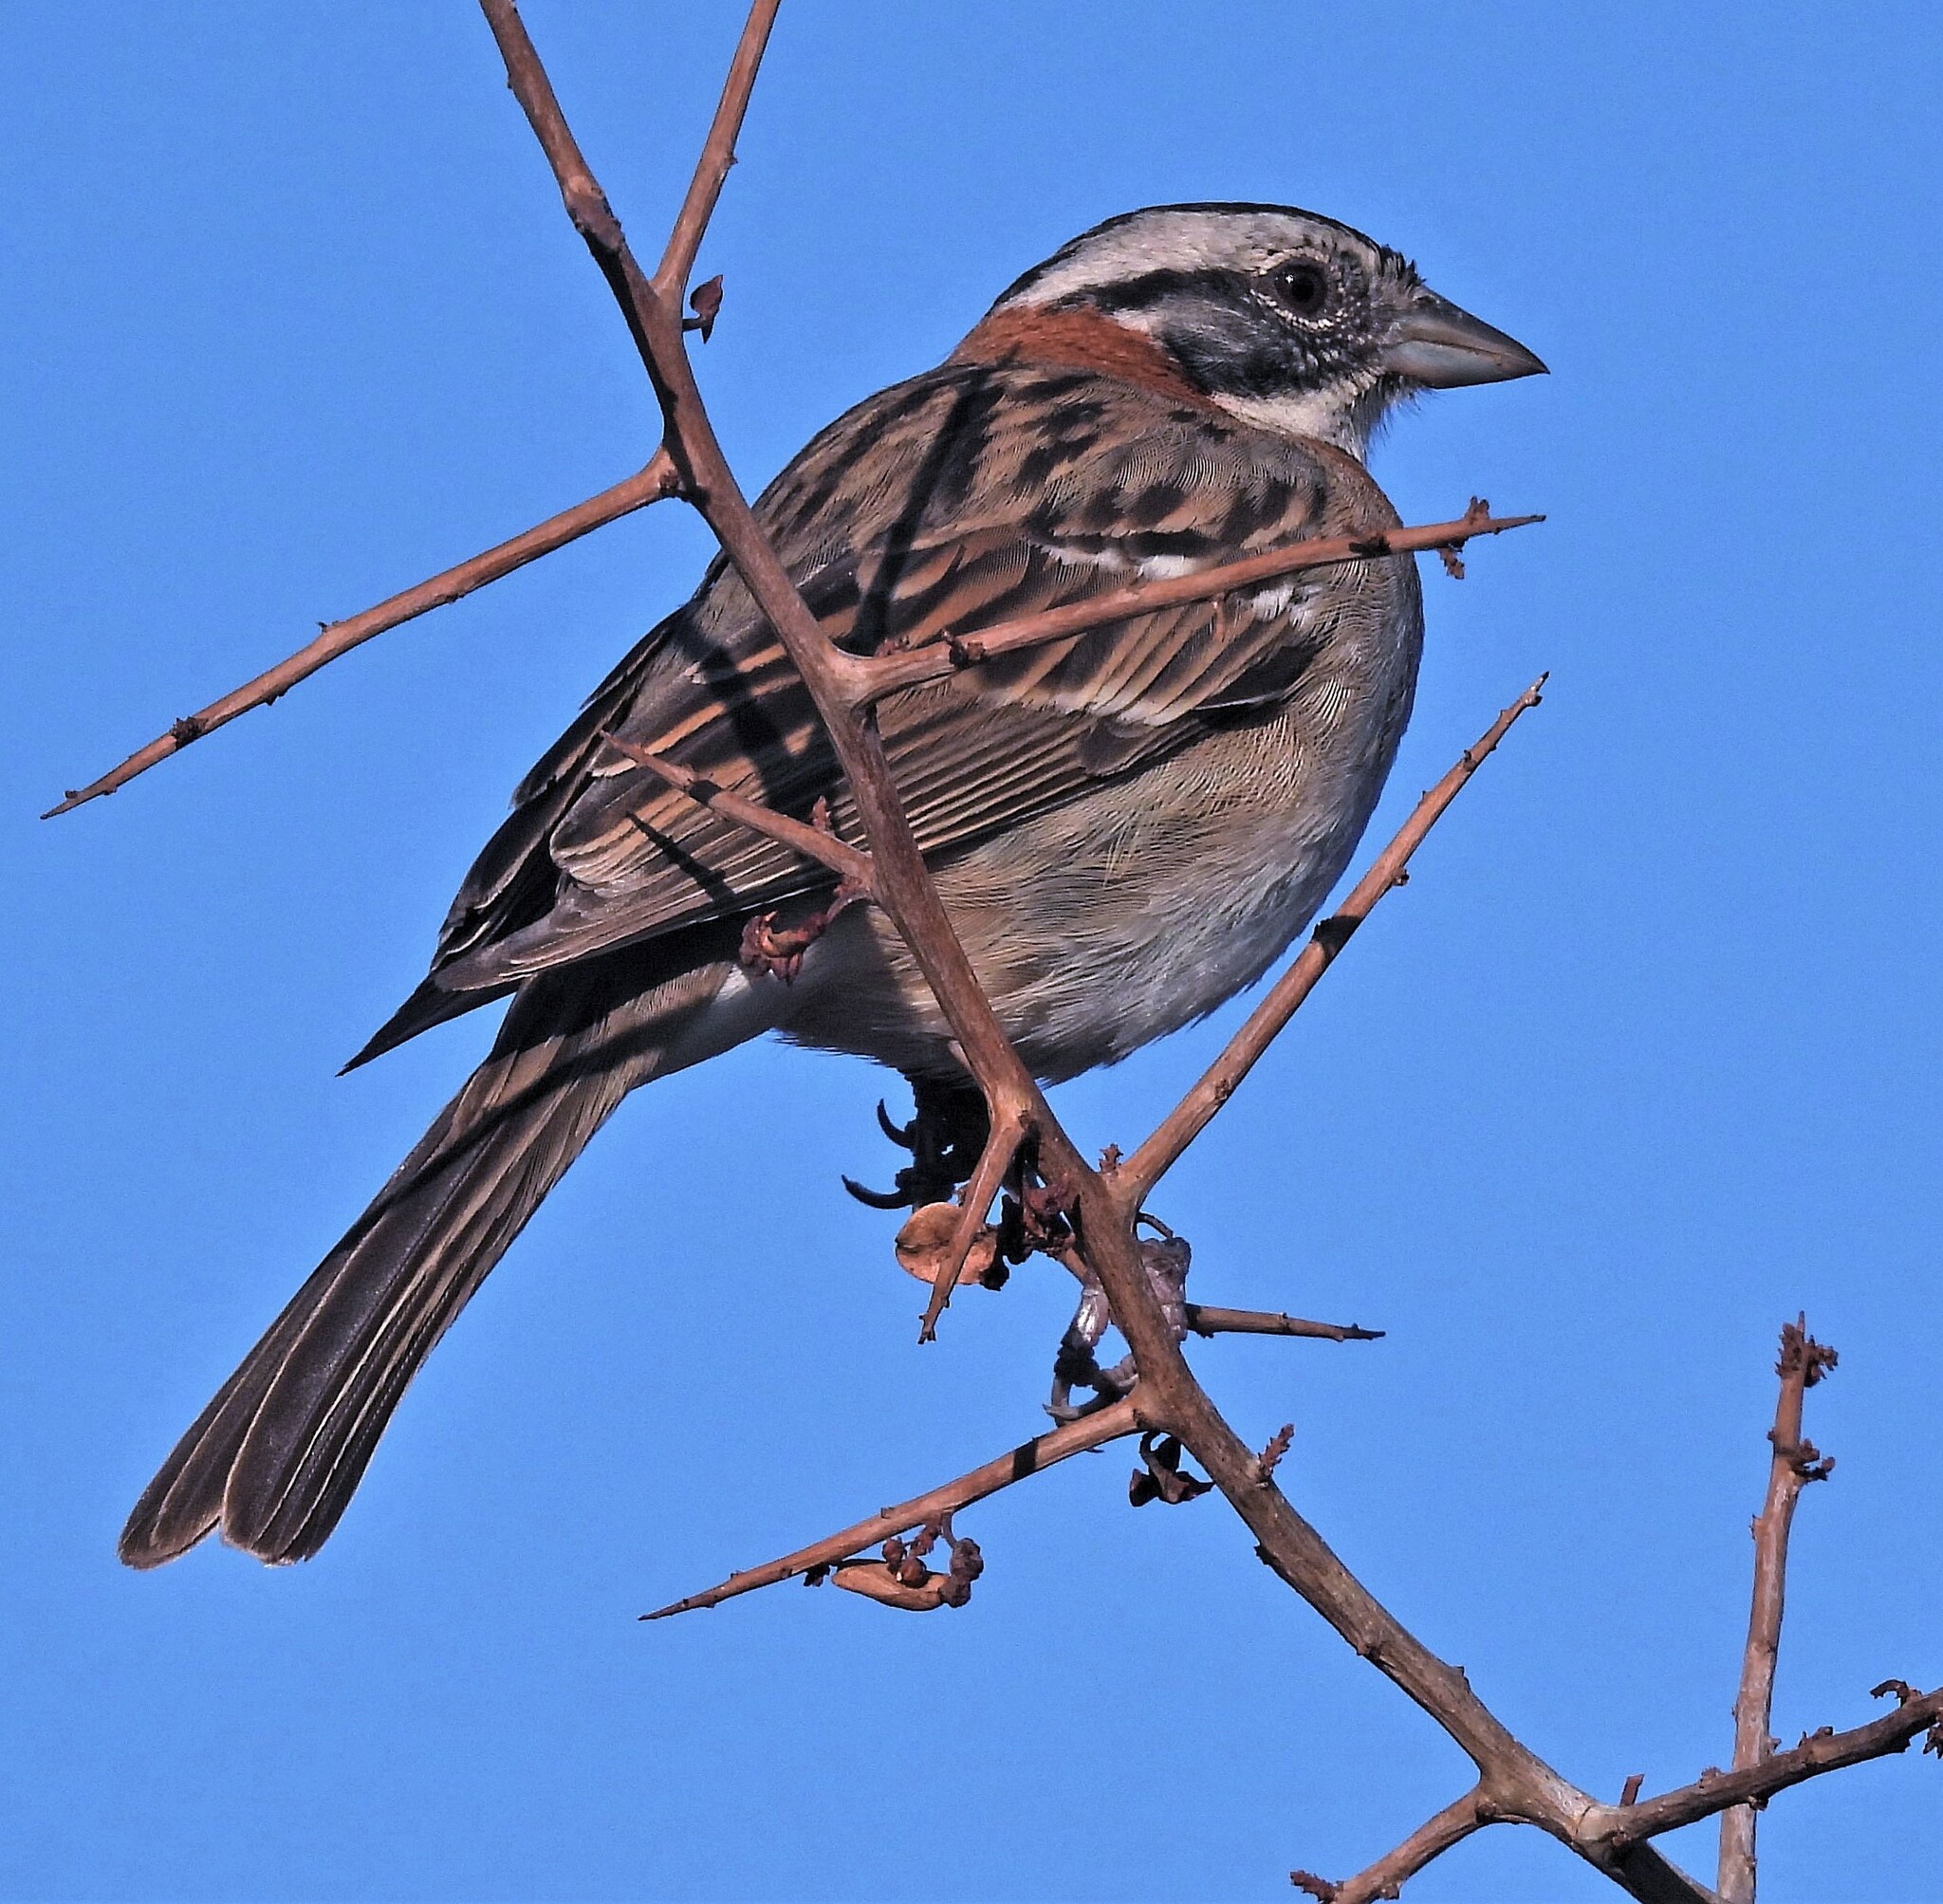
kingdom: Animalia
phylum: Chordata
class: Aves
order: Passeriformes
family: Passerellidae
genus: Zonotrichia
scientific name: Zonotrichia capensis
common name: Rufous-collared sparrow
